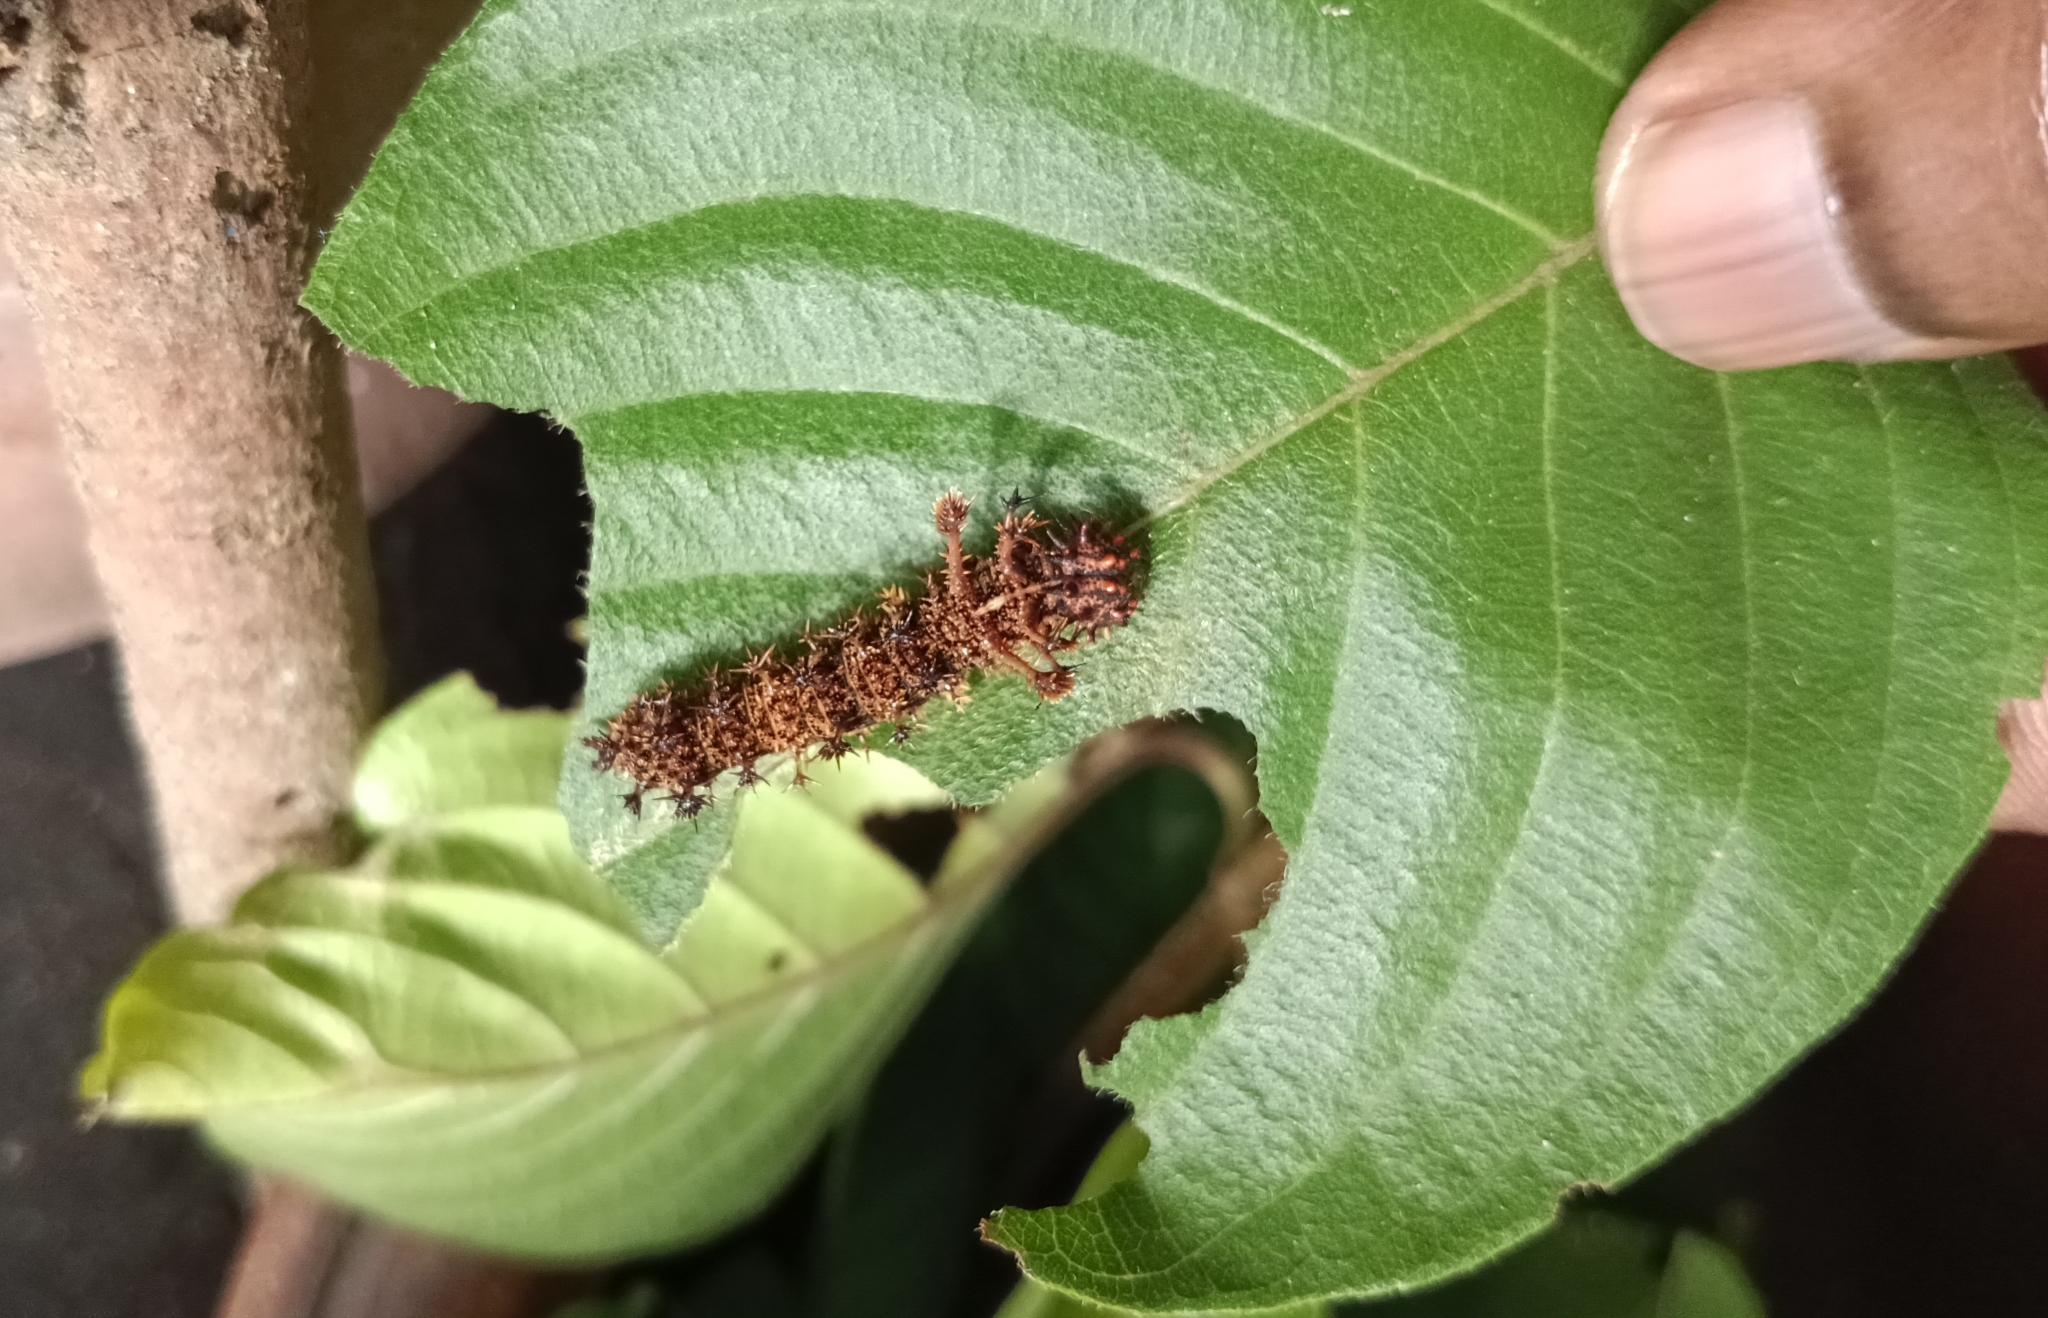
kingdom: Animalia
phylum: Arthropoda
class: Insecta
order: Lepidoptera
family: Nymphalidae
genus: Limenitis
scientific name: Limenitis Moduza procris
